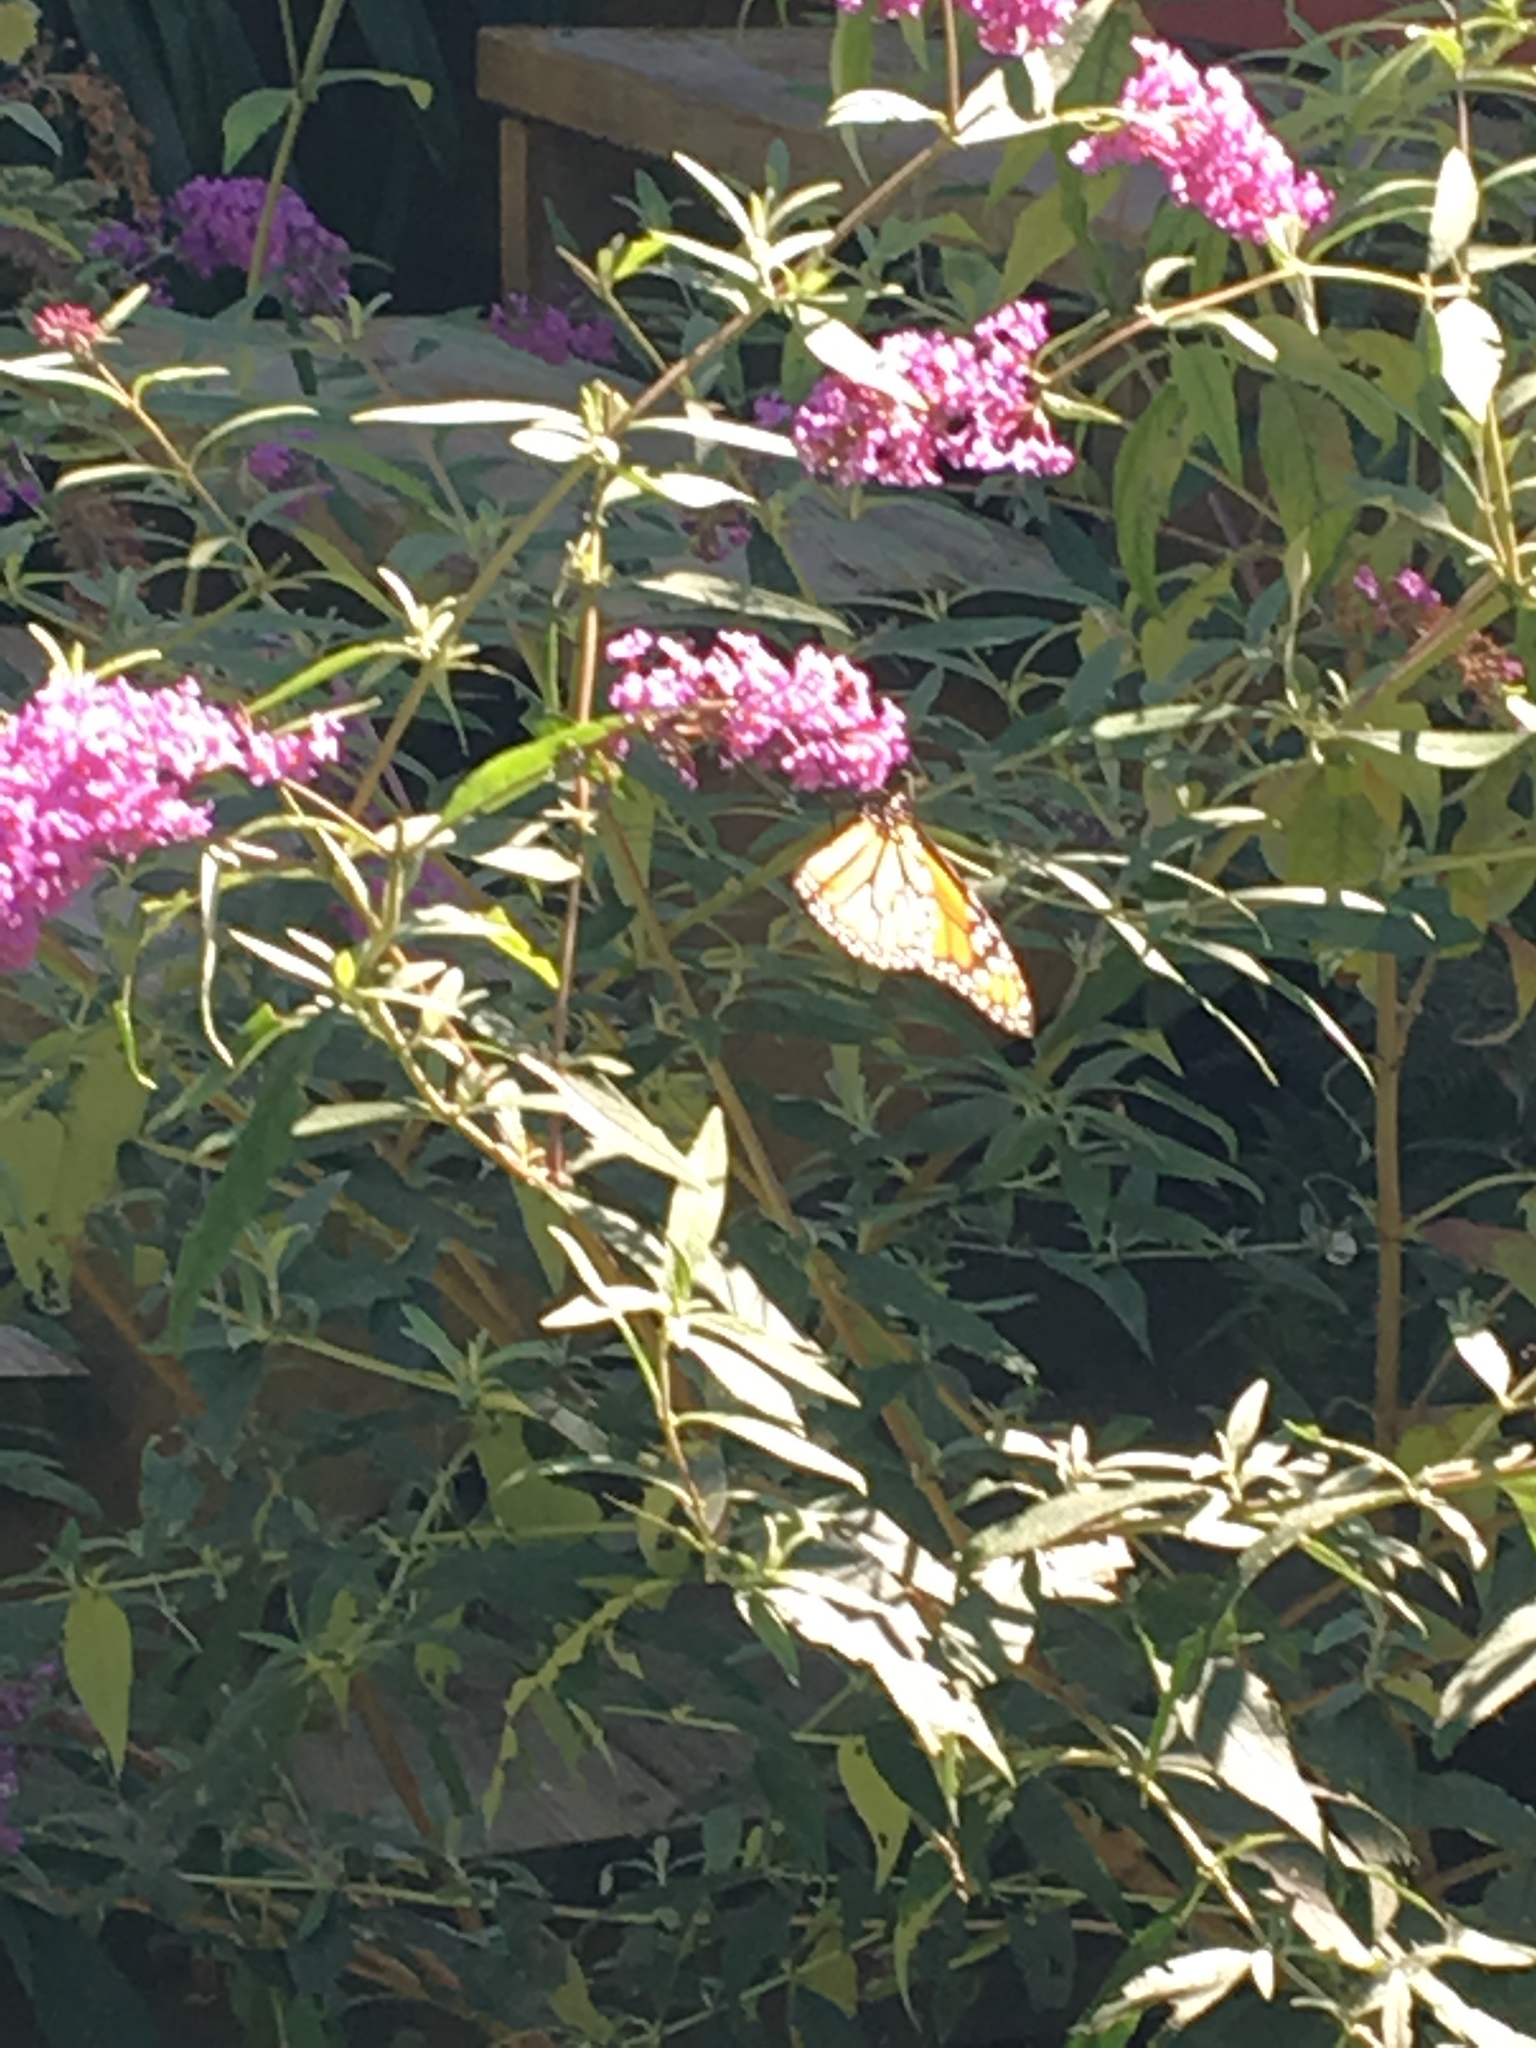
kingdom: Animalia
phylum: Arthropoda
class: Insecta
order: Lepidoptera
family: Nymphalidae
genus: Danaus
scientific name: Danaus plexippus
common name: Monarch
